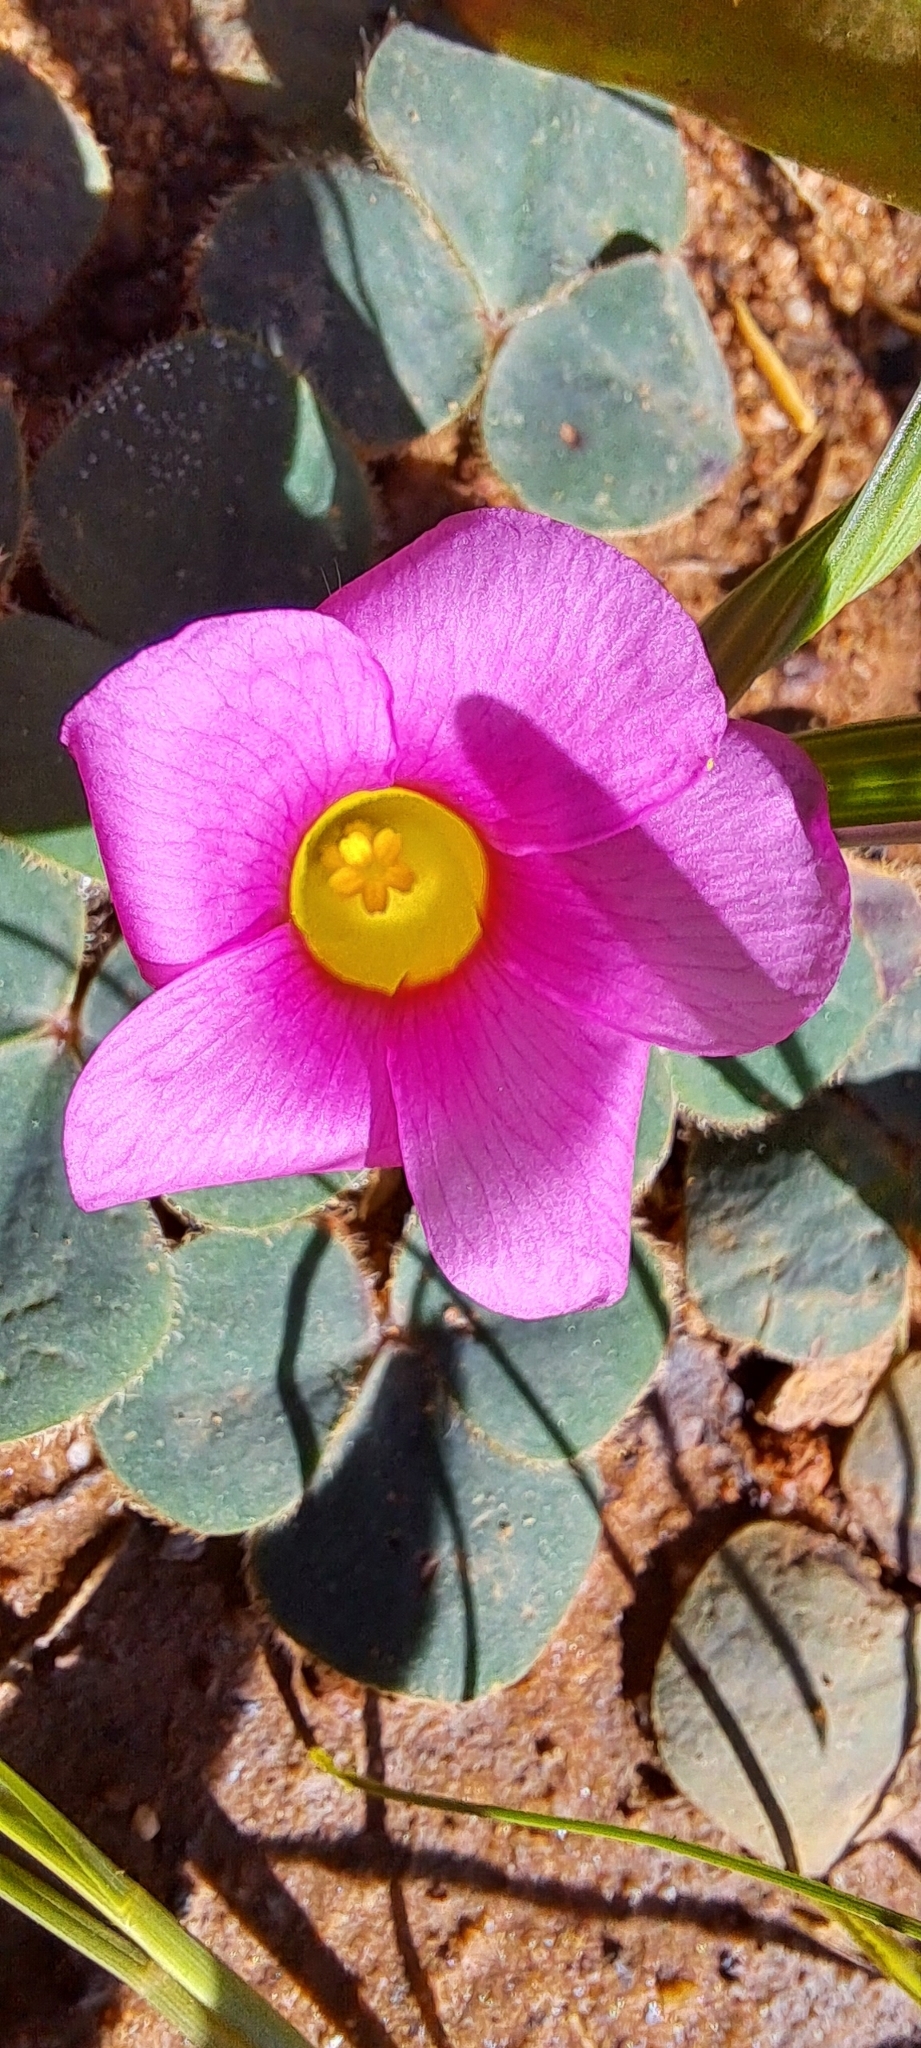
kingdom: Plantae
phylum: Tracheophyta
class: Magnoliopsida
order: Oxalidales
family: Oxalidaceae
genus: Oxalis
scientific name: Oxalis purpurea
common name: Purple woodsorrel
